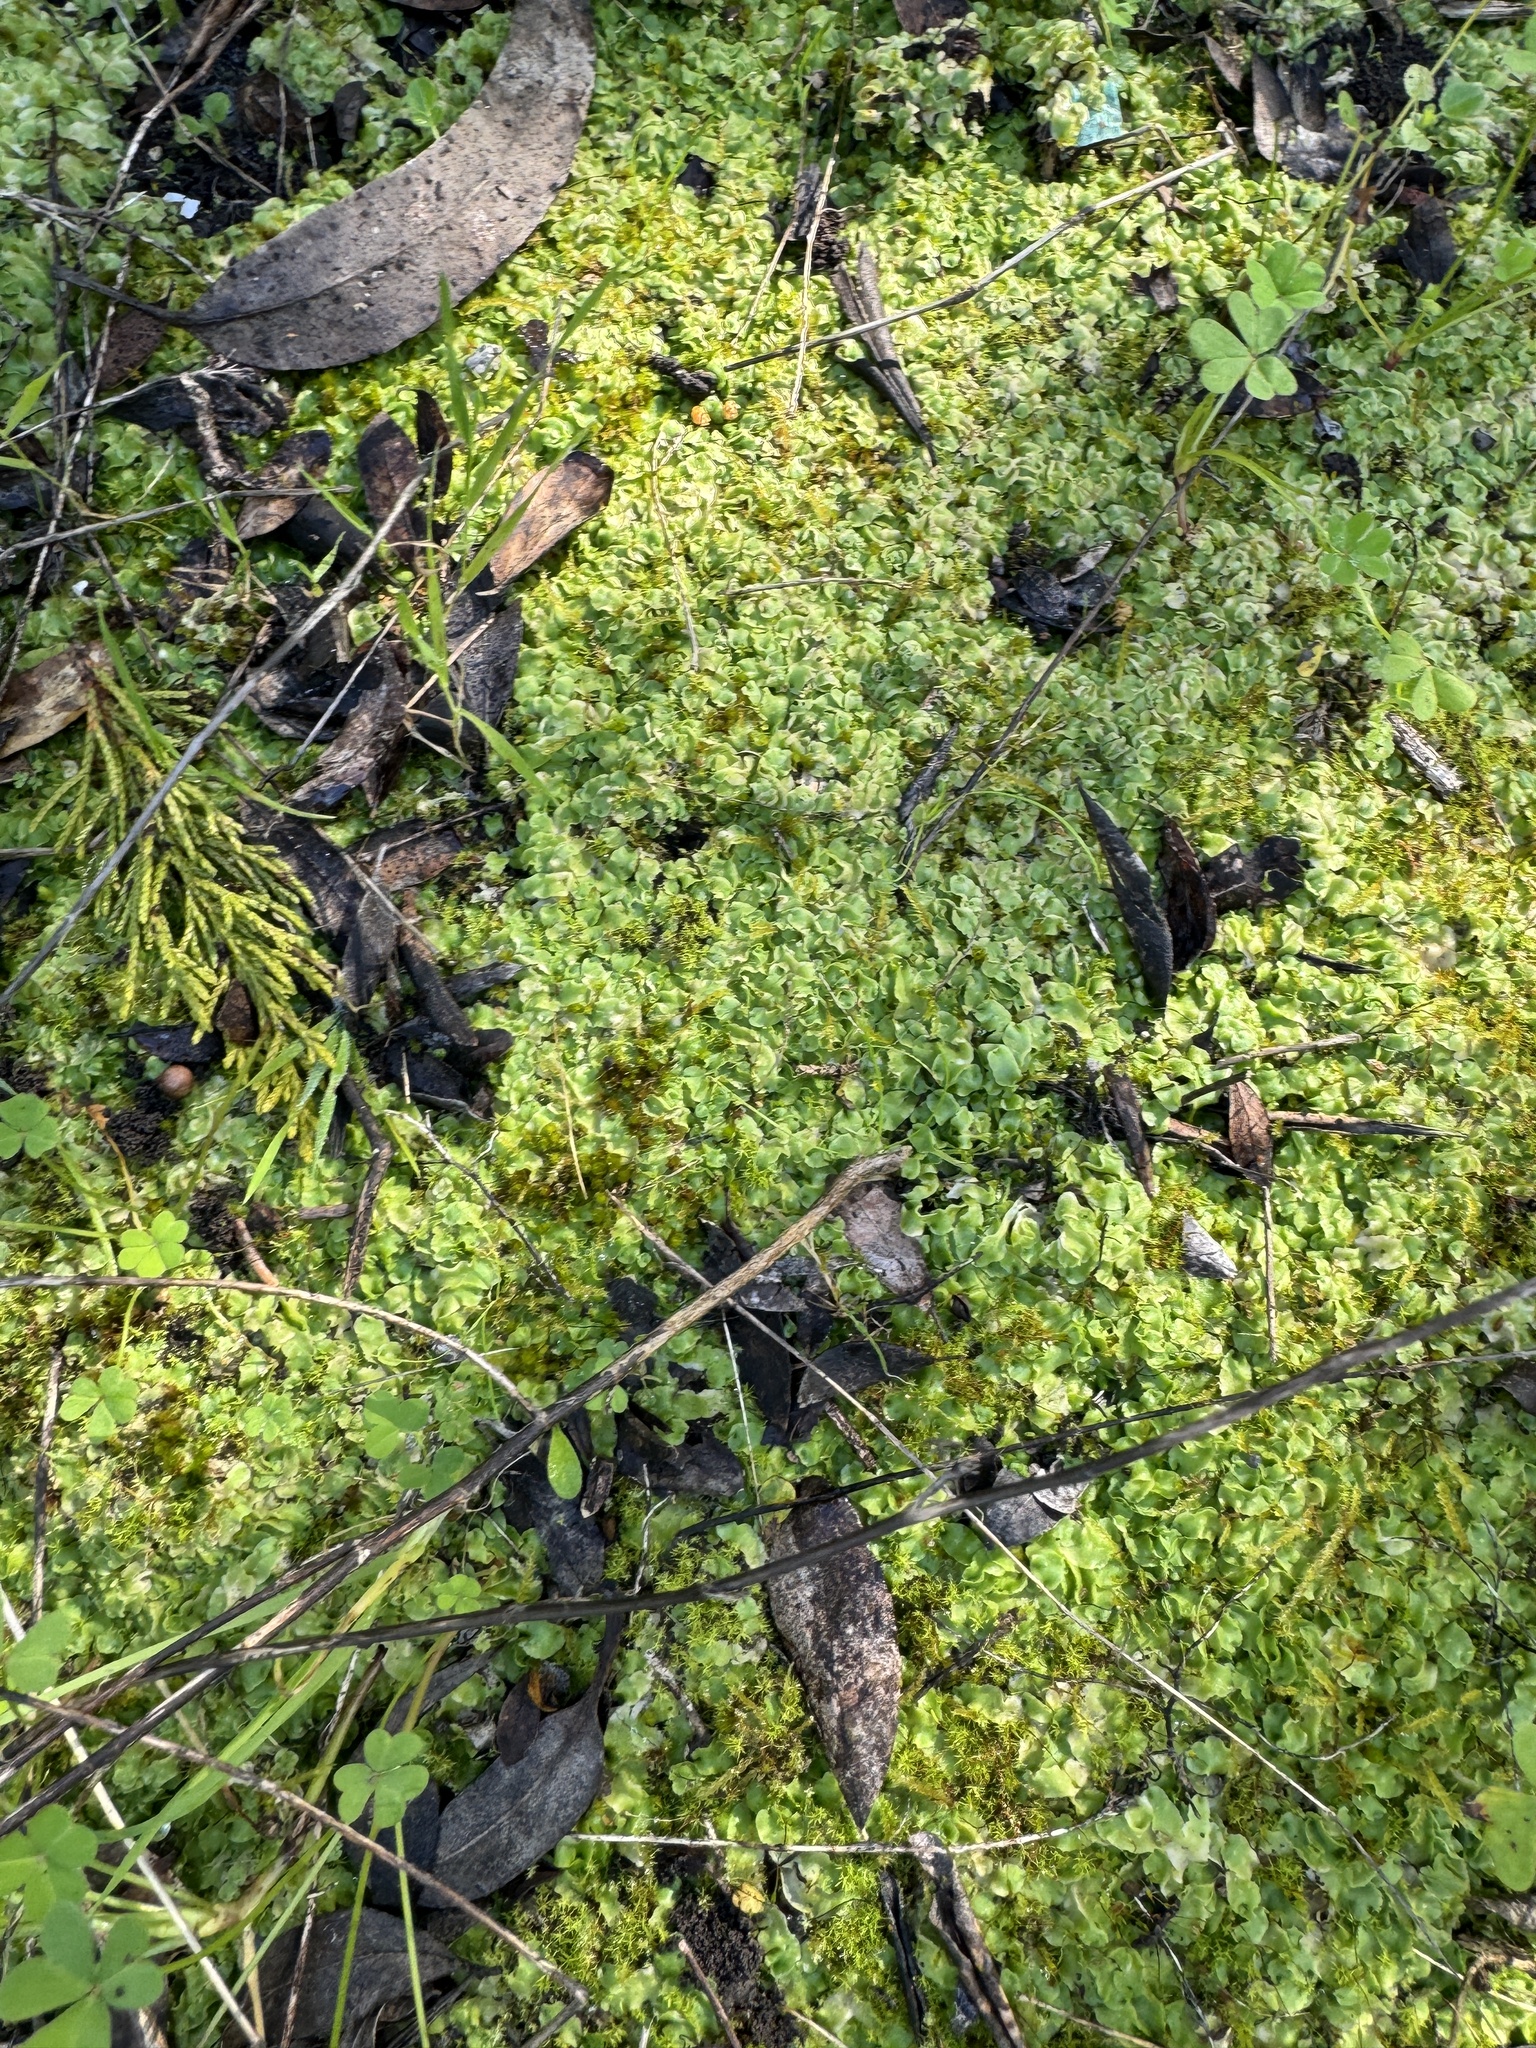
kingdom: Plantae
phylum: Marchantiophyta
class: Marchantiopsida
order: Marchantiales
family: Corsiniaceae
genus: Corsinia
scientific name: Corsinia coriandrina
